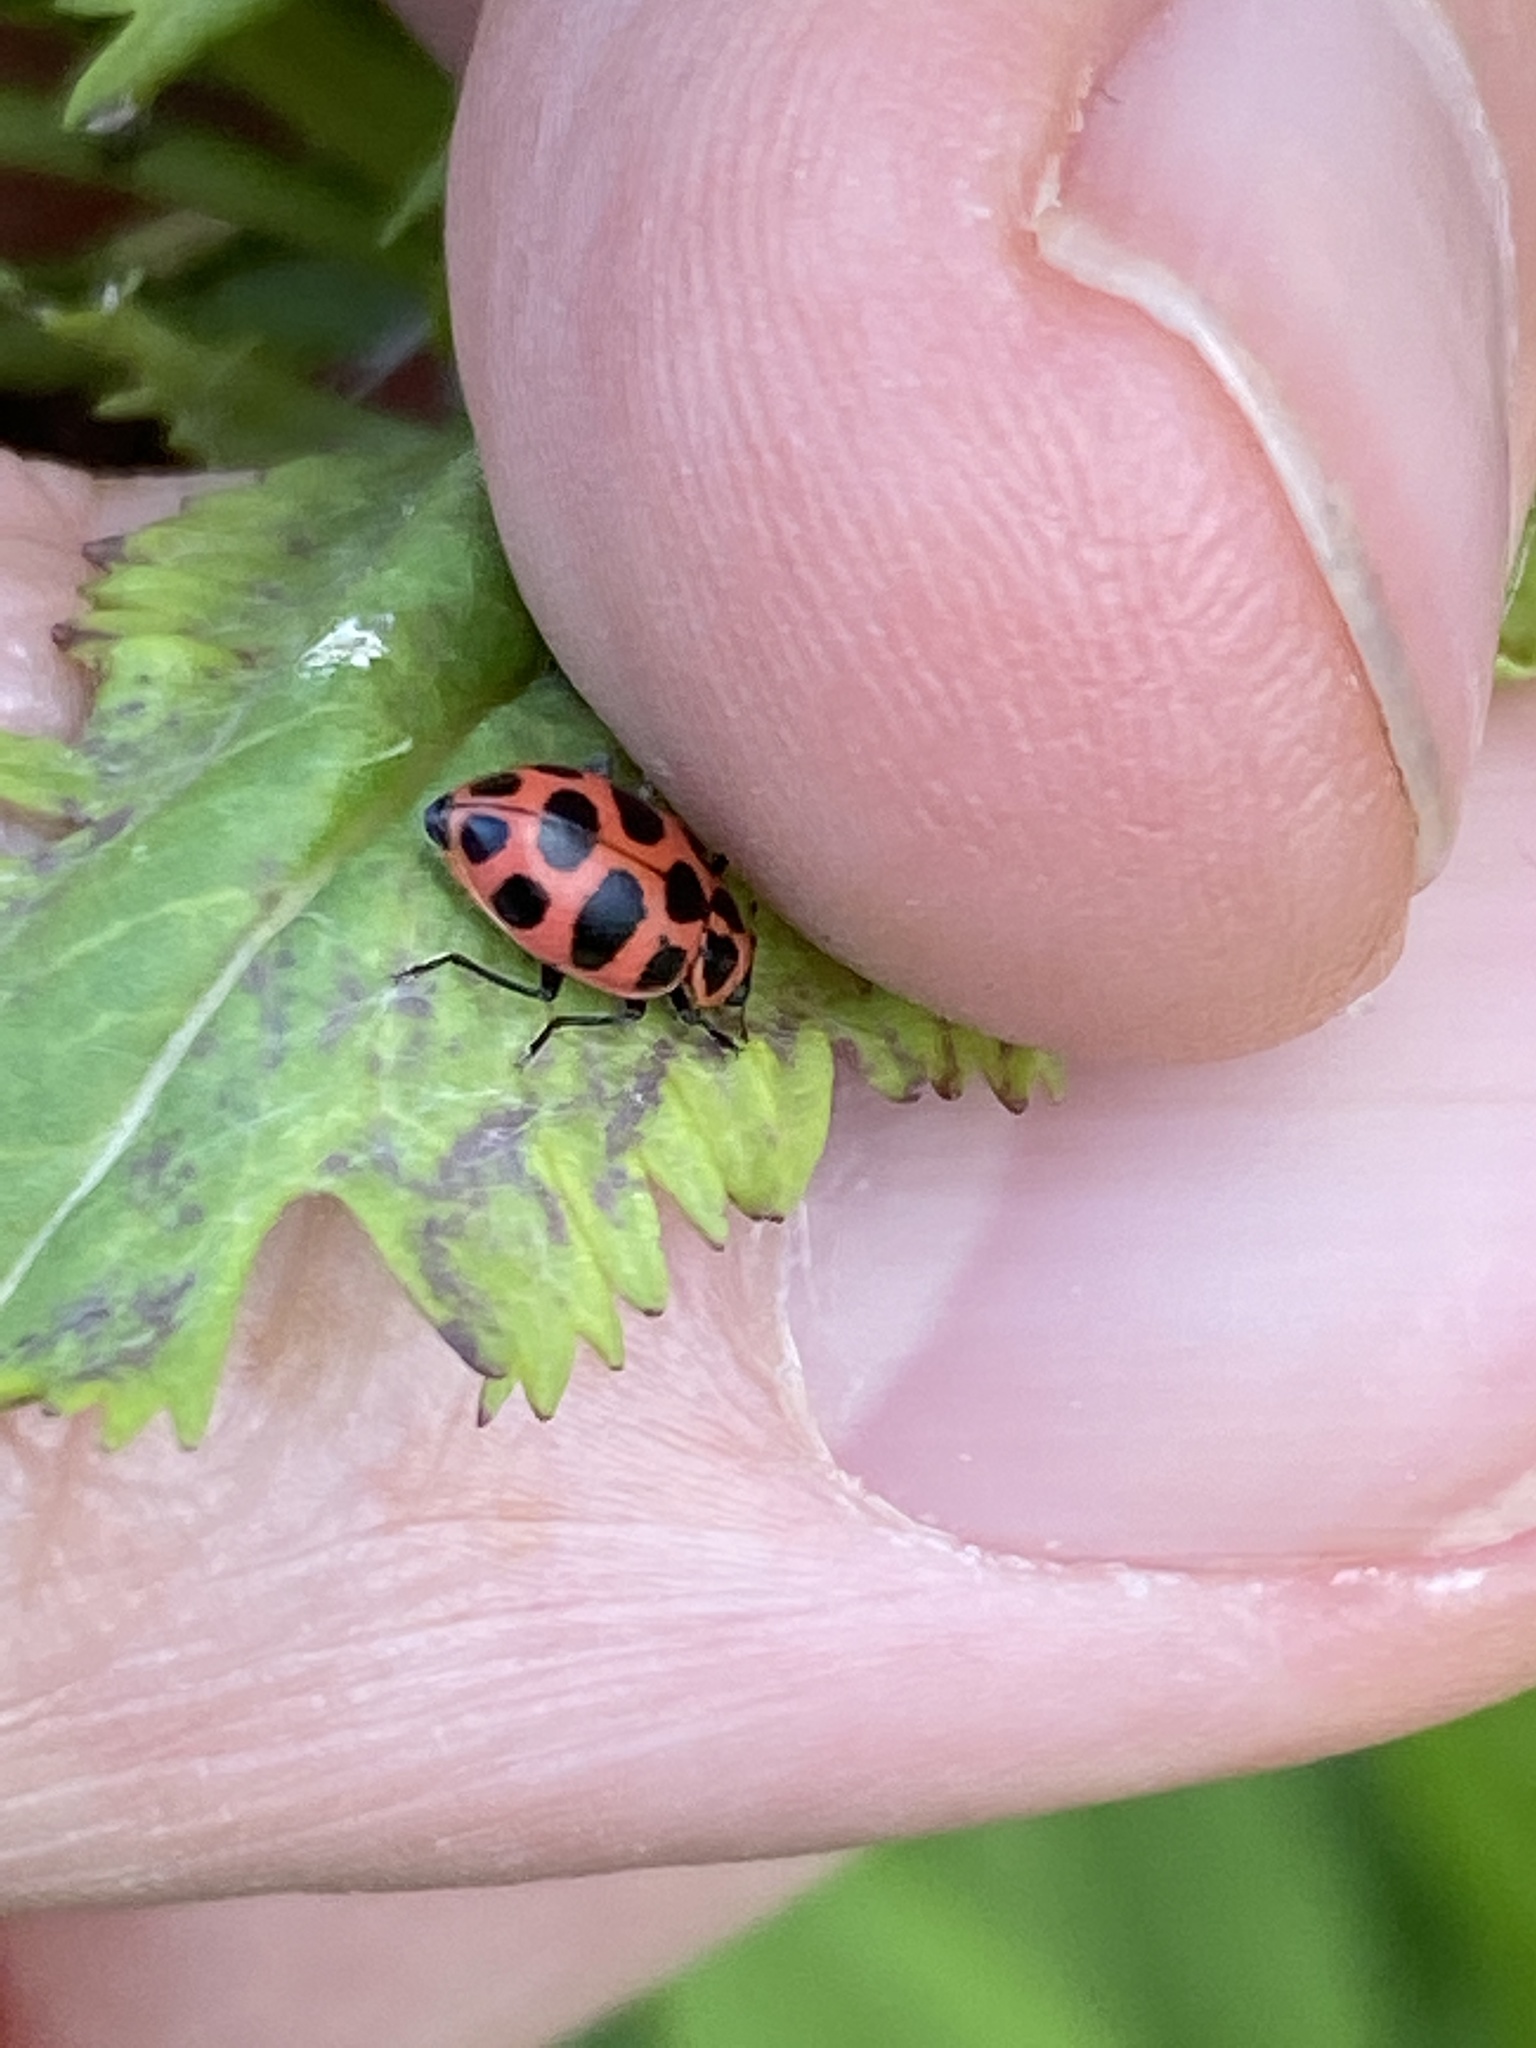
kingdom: Animalia
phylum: Arthropoda
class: Insecta
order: Coleoptera
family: Coccinellidae
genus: Coleomegilla
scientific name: Coleomegilla maculata
